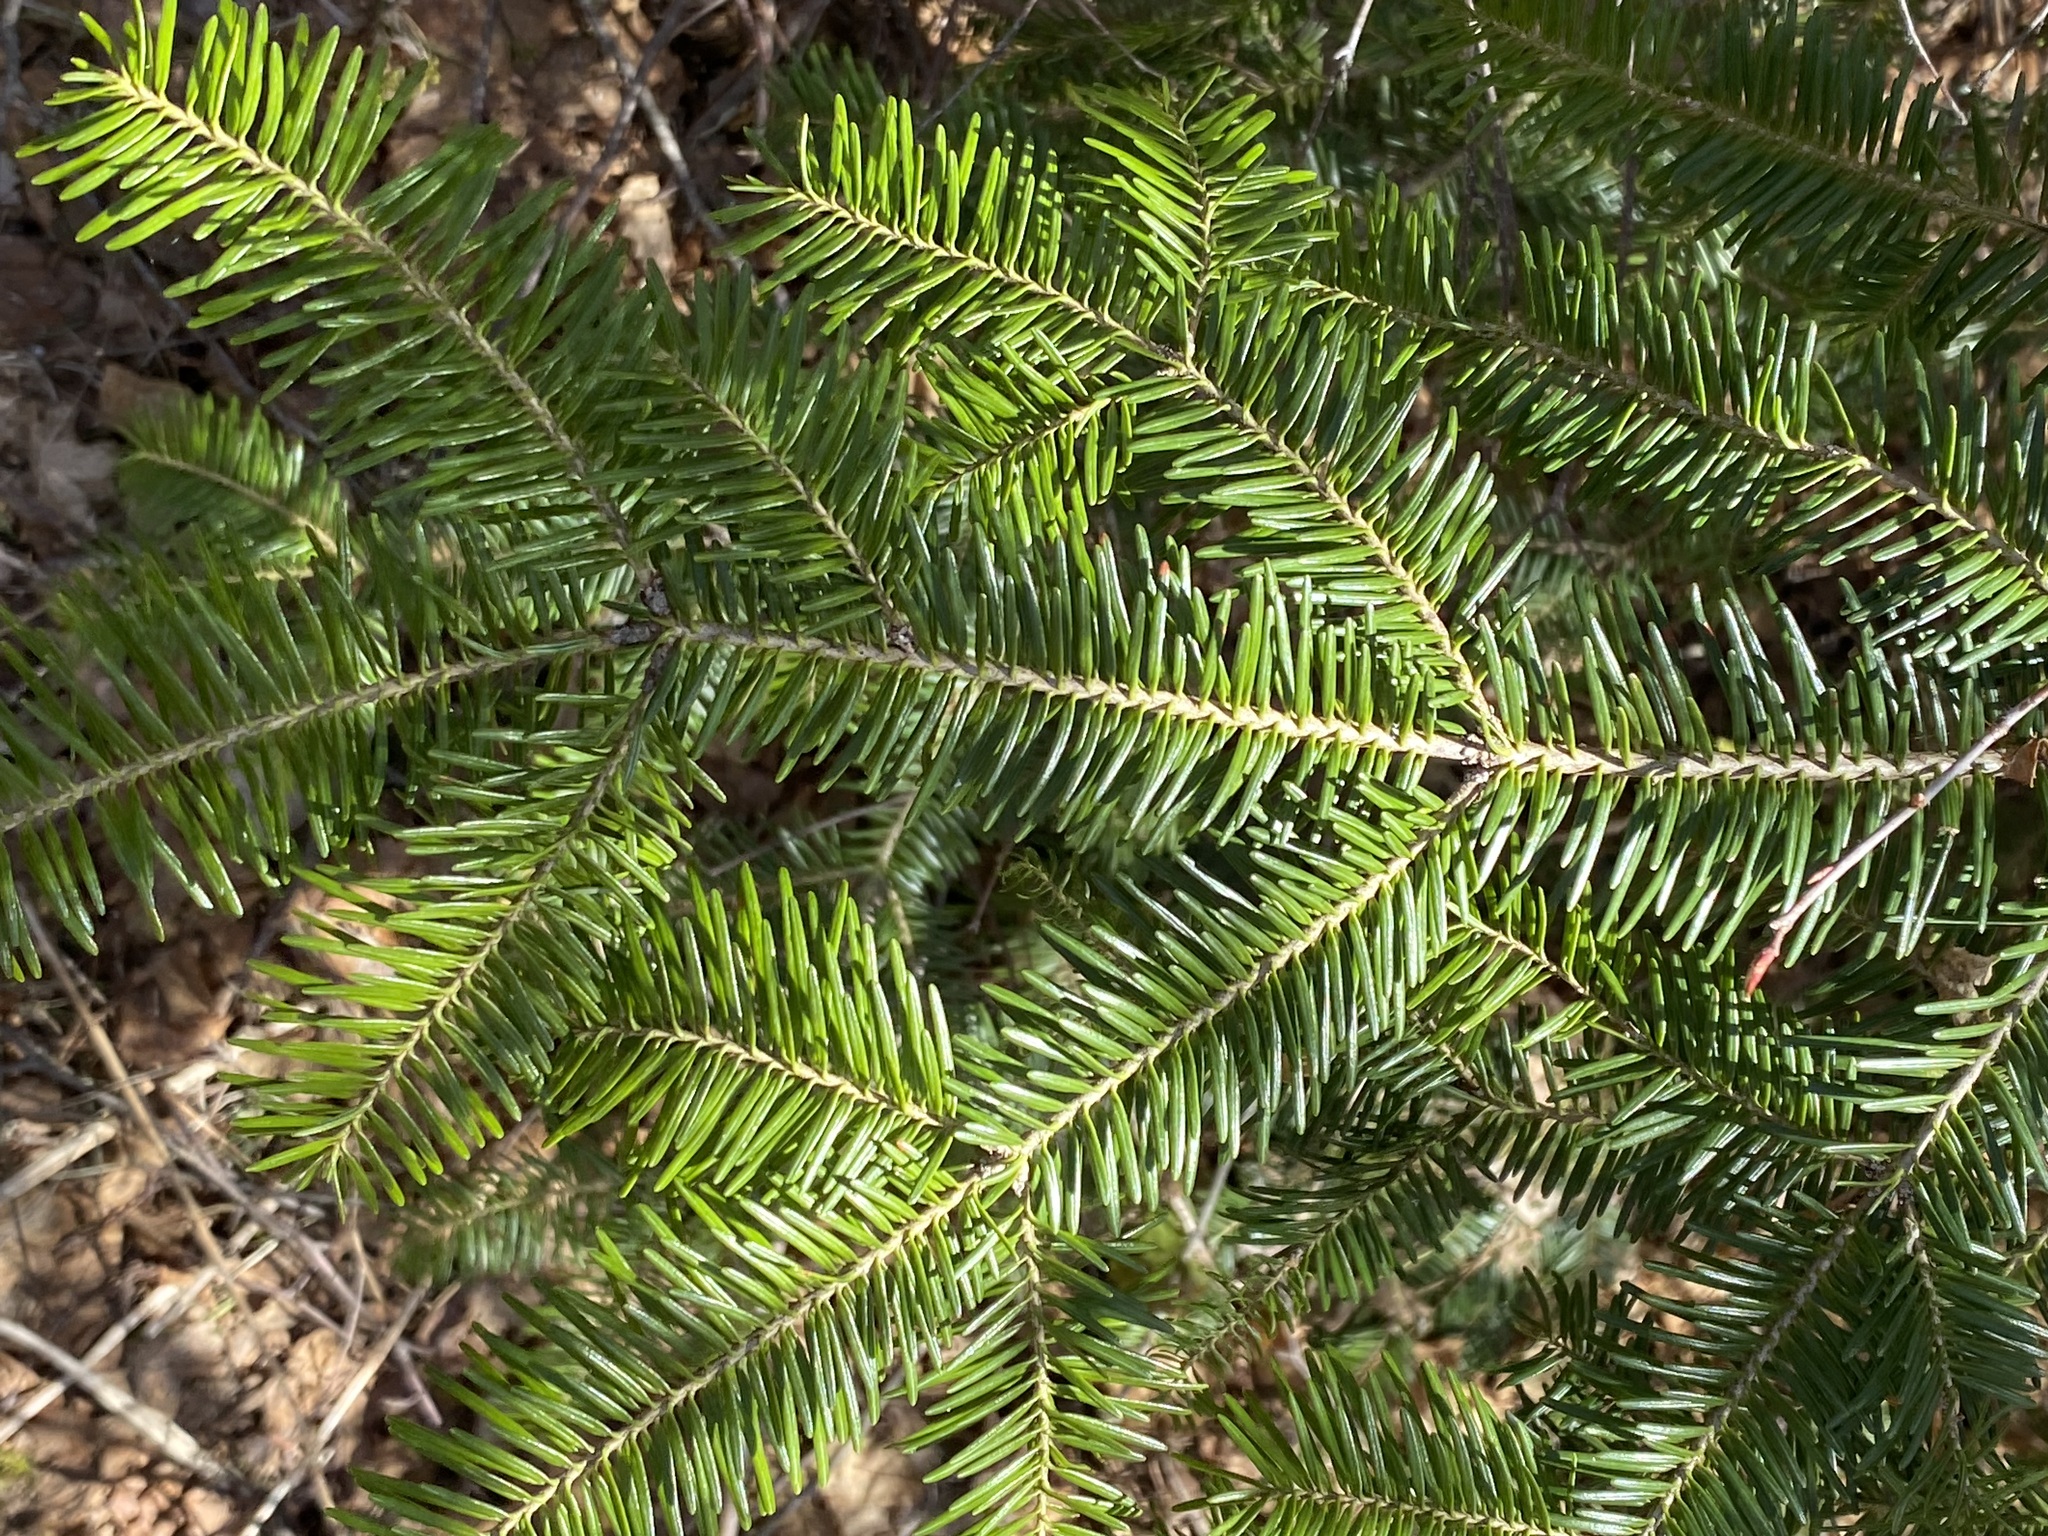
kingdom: Plantae
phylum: Tracheophyta
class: Pinopsida
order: Pinales
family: Pinaceae
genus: Abies
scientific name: Abies balsamea
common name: Balsam fir
